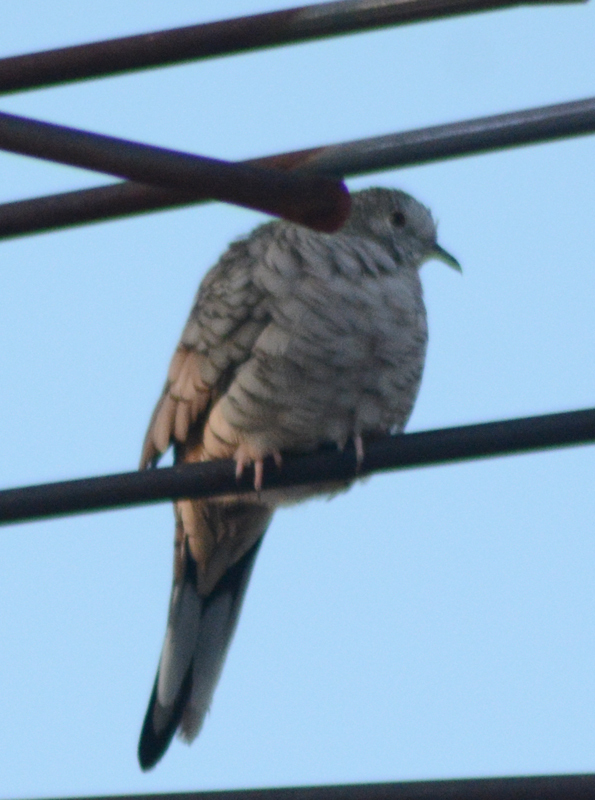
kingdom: Animalia
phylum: Chordata
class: Aves
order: Columbiformes
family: Columbidae
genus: Columbina
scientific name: Columbina inca
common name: Inca dove
